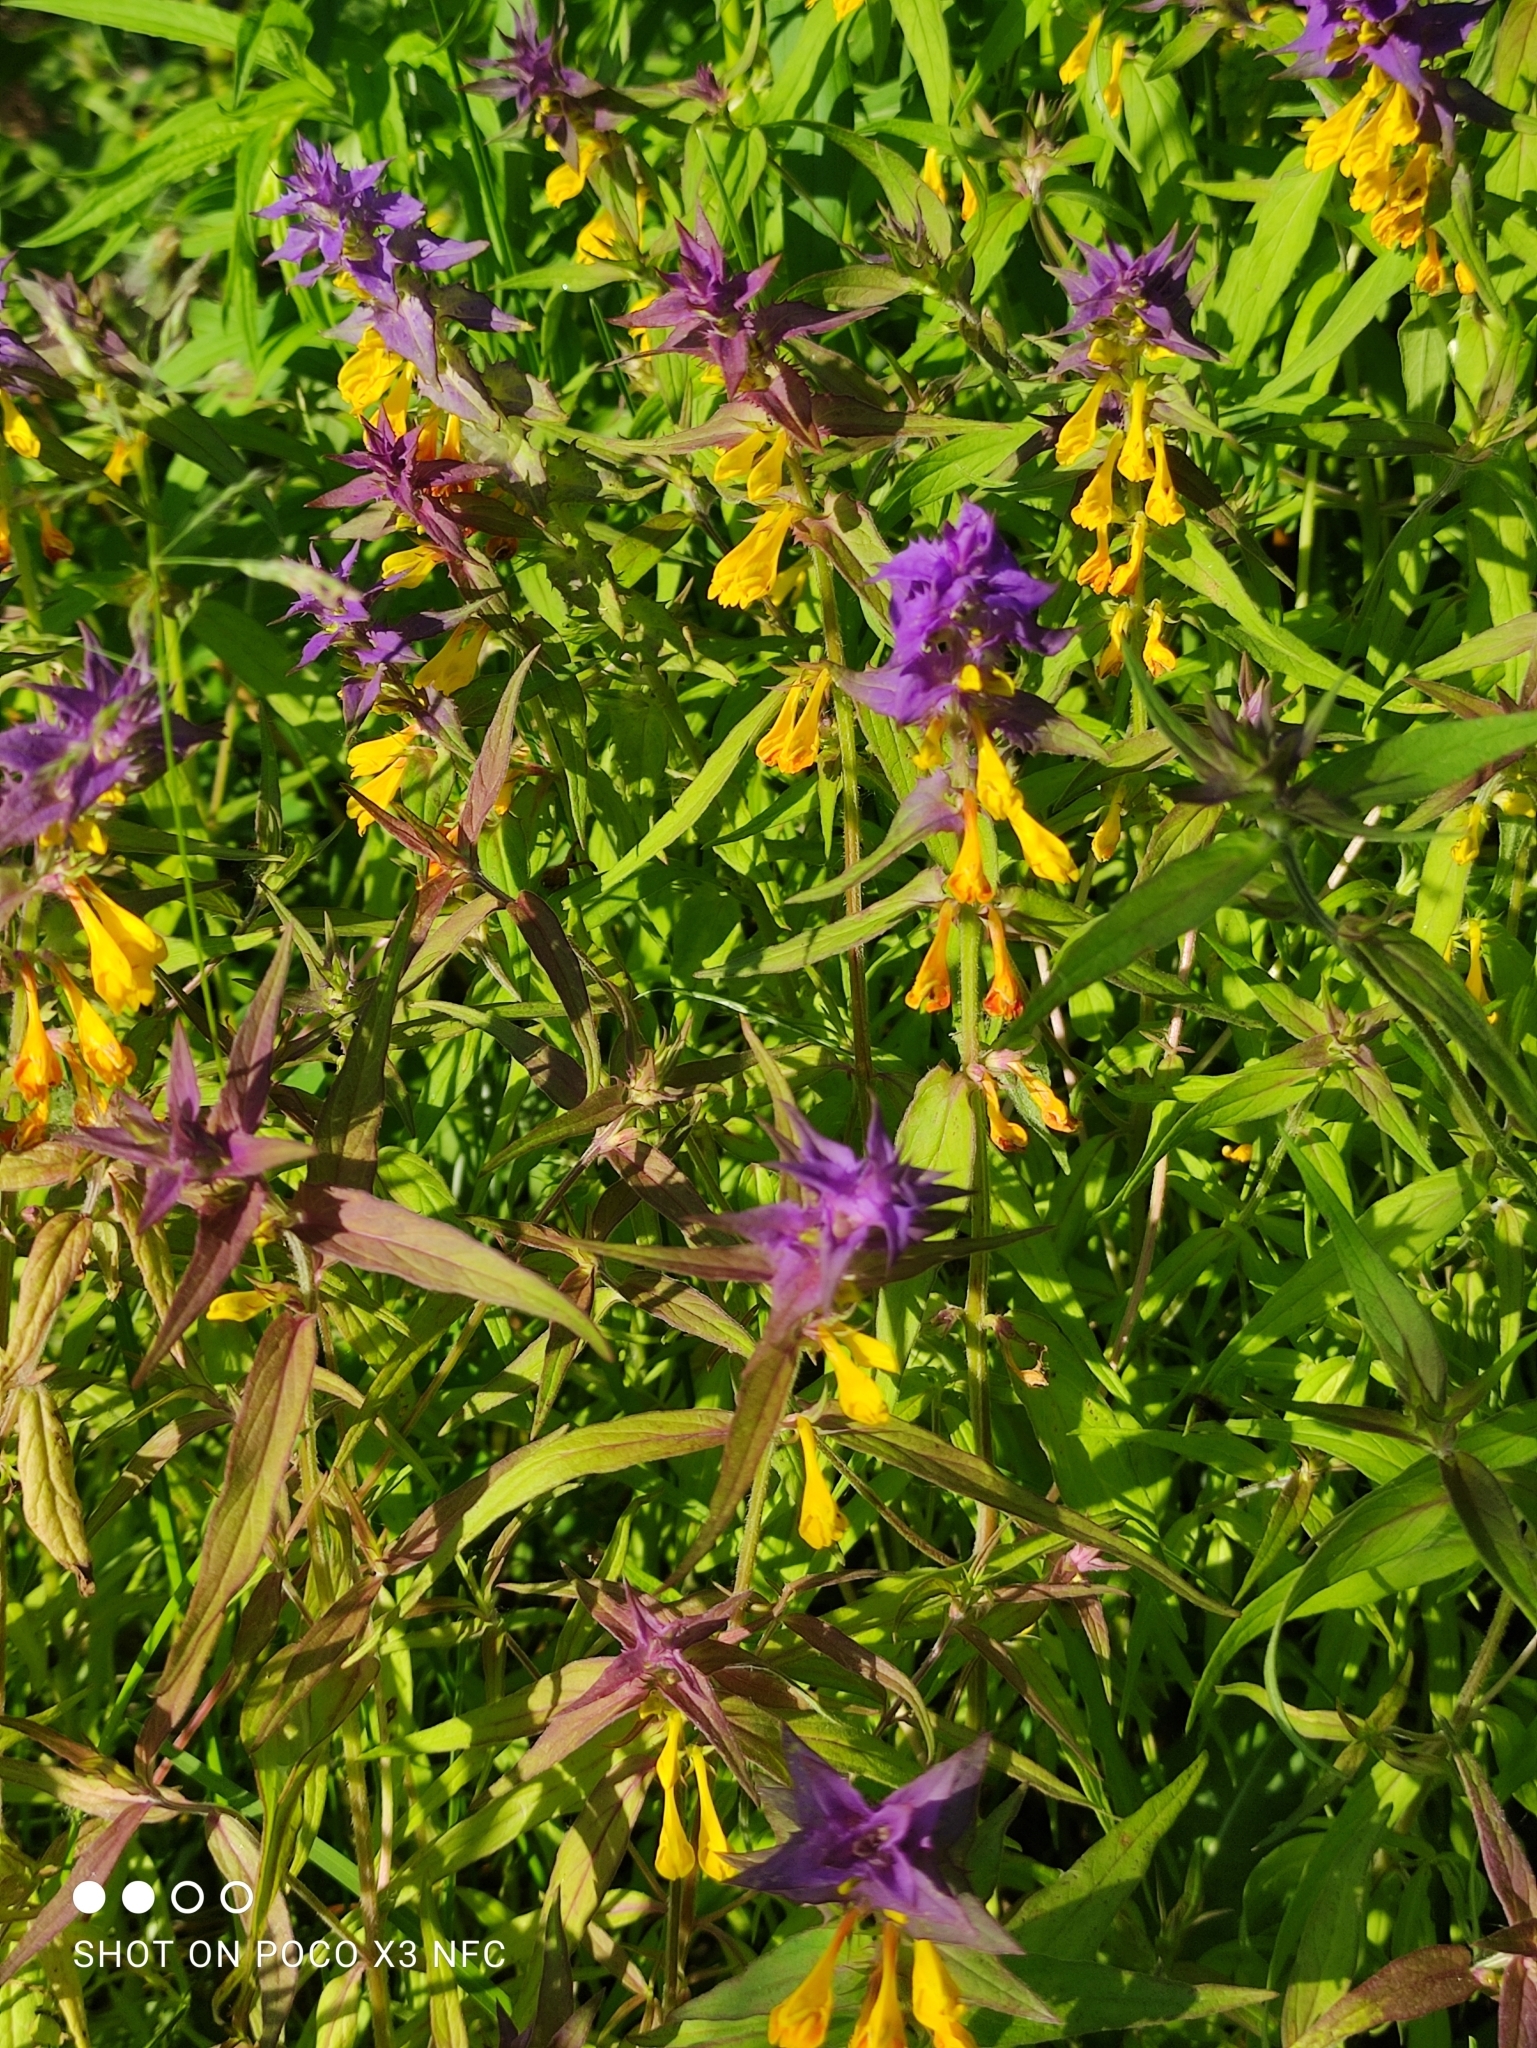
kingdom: Plantae
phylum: Tracheophyta
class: Magnoliopsida
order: Lamiales
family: Orobanchaceae
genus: Melampyrum
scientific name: Melampyrum nemorosum
